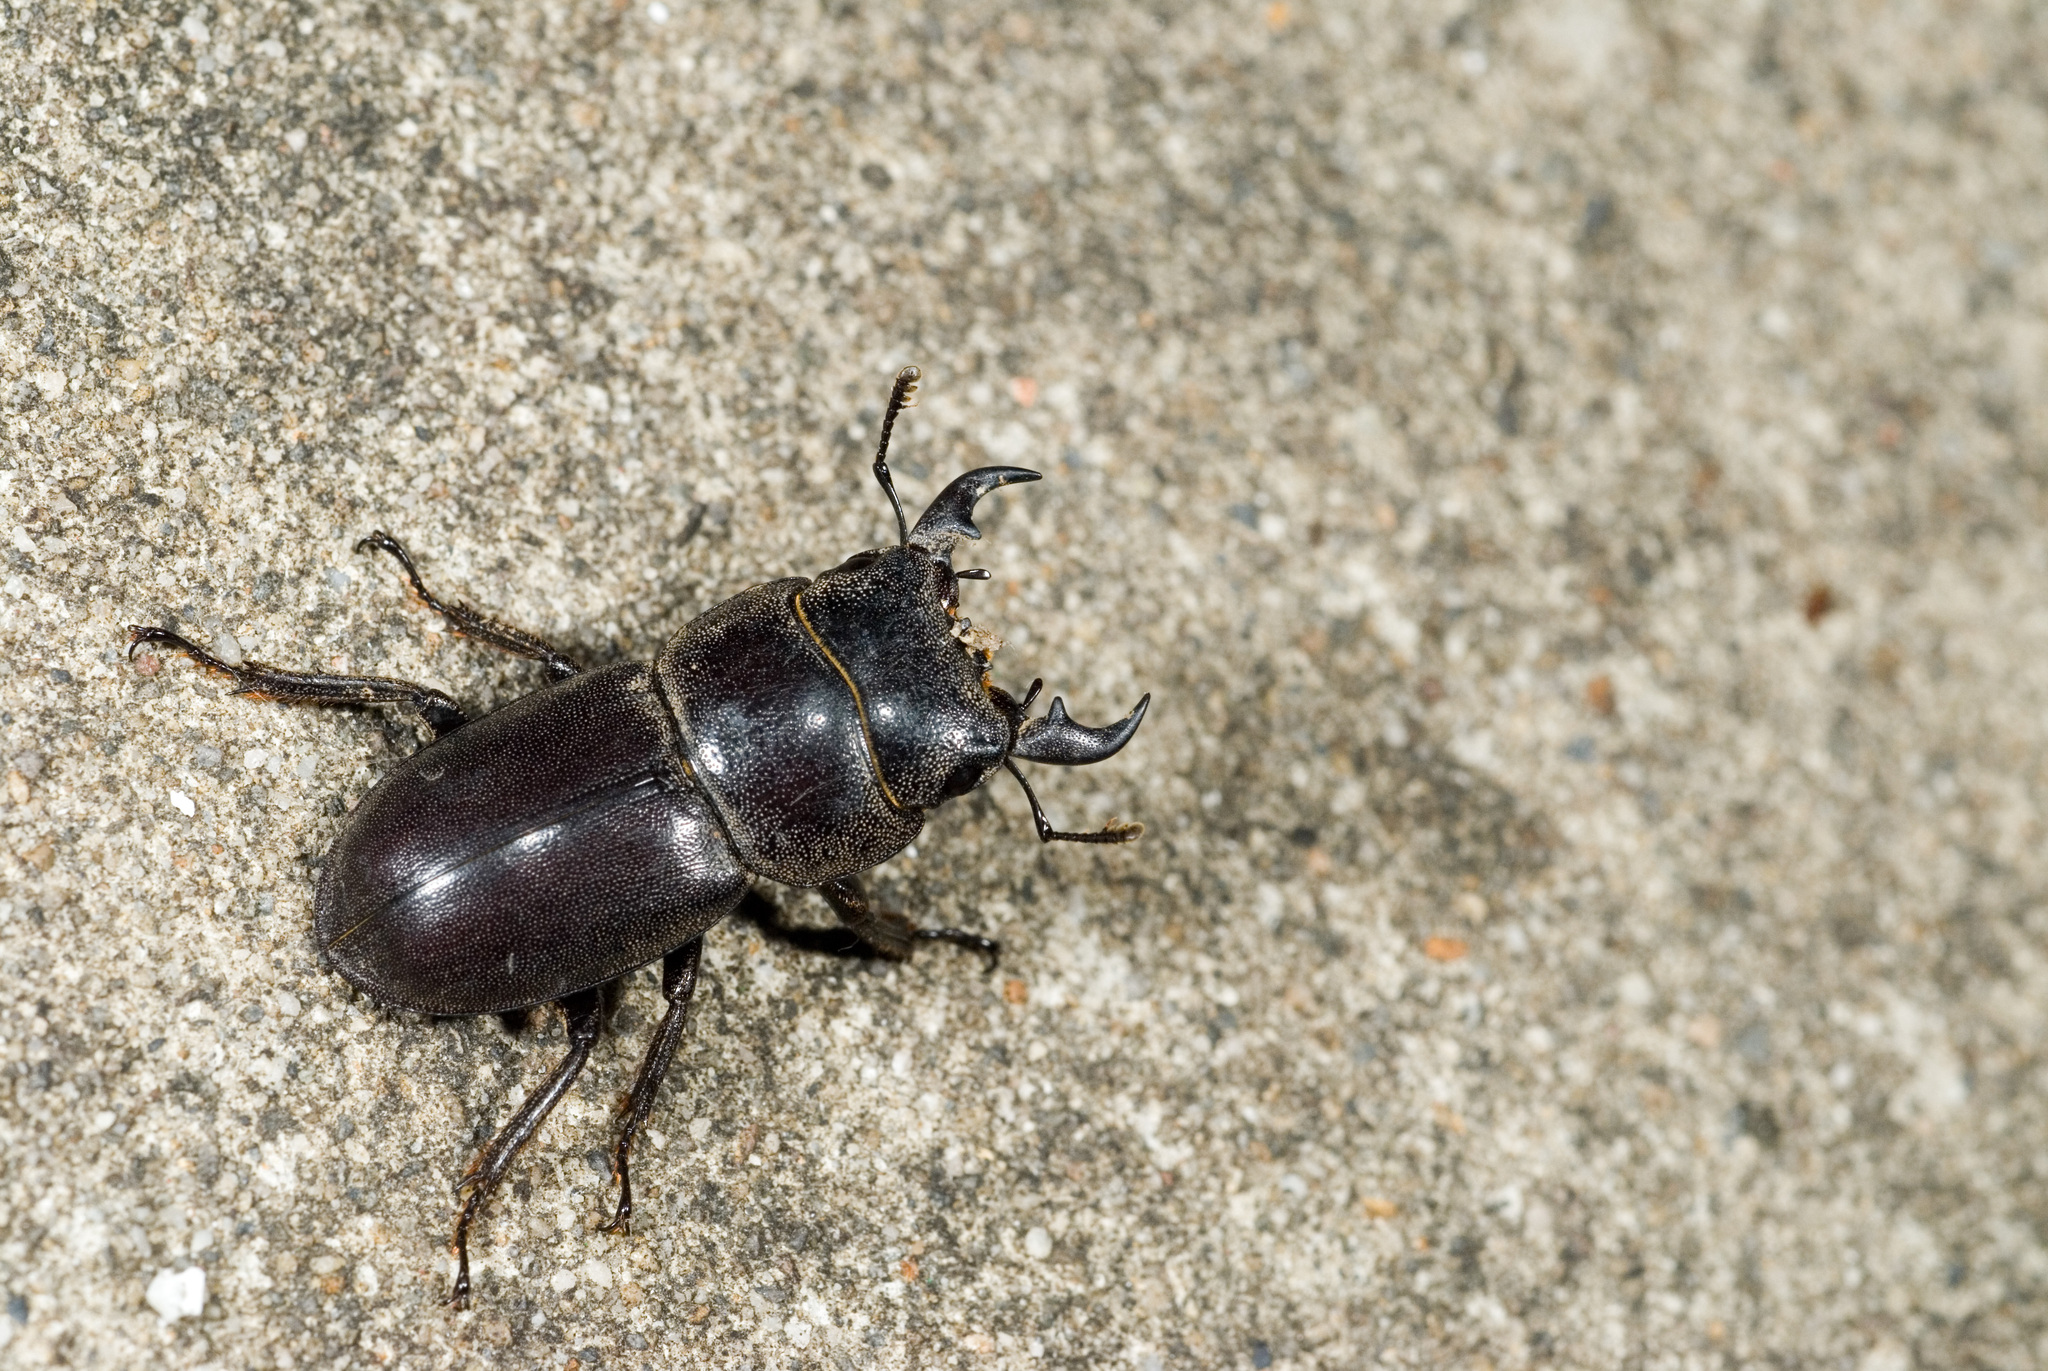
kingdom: Animalia
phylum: Arthropoda
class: Insecta
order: Coleoptera
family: Lucanidae
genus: Serrognathus
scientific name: Serrognathus kyanrauensis
